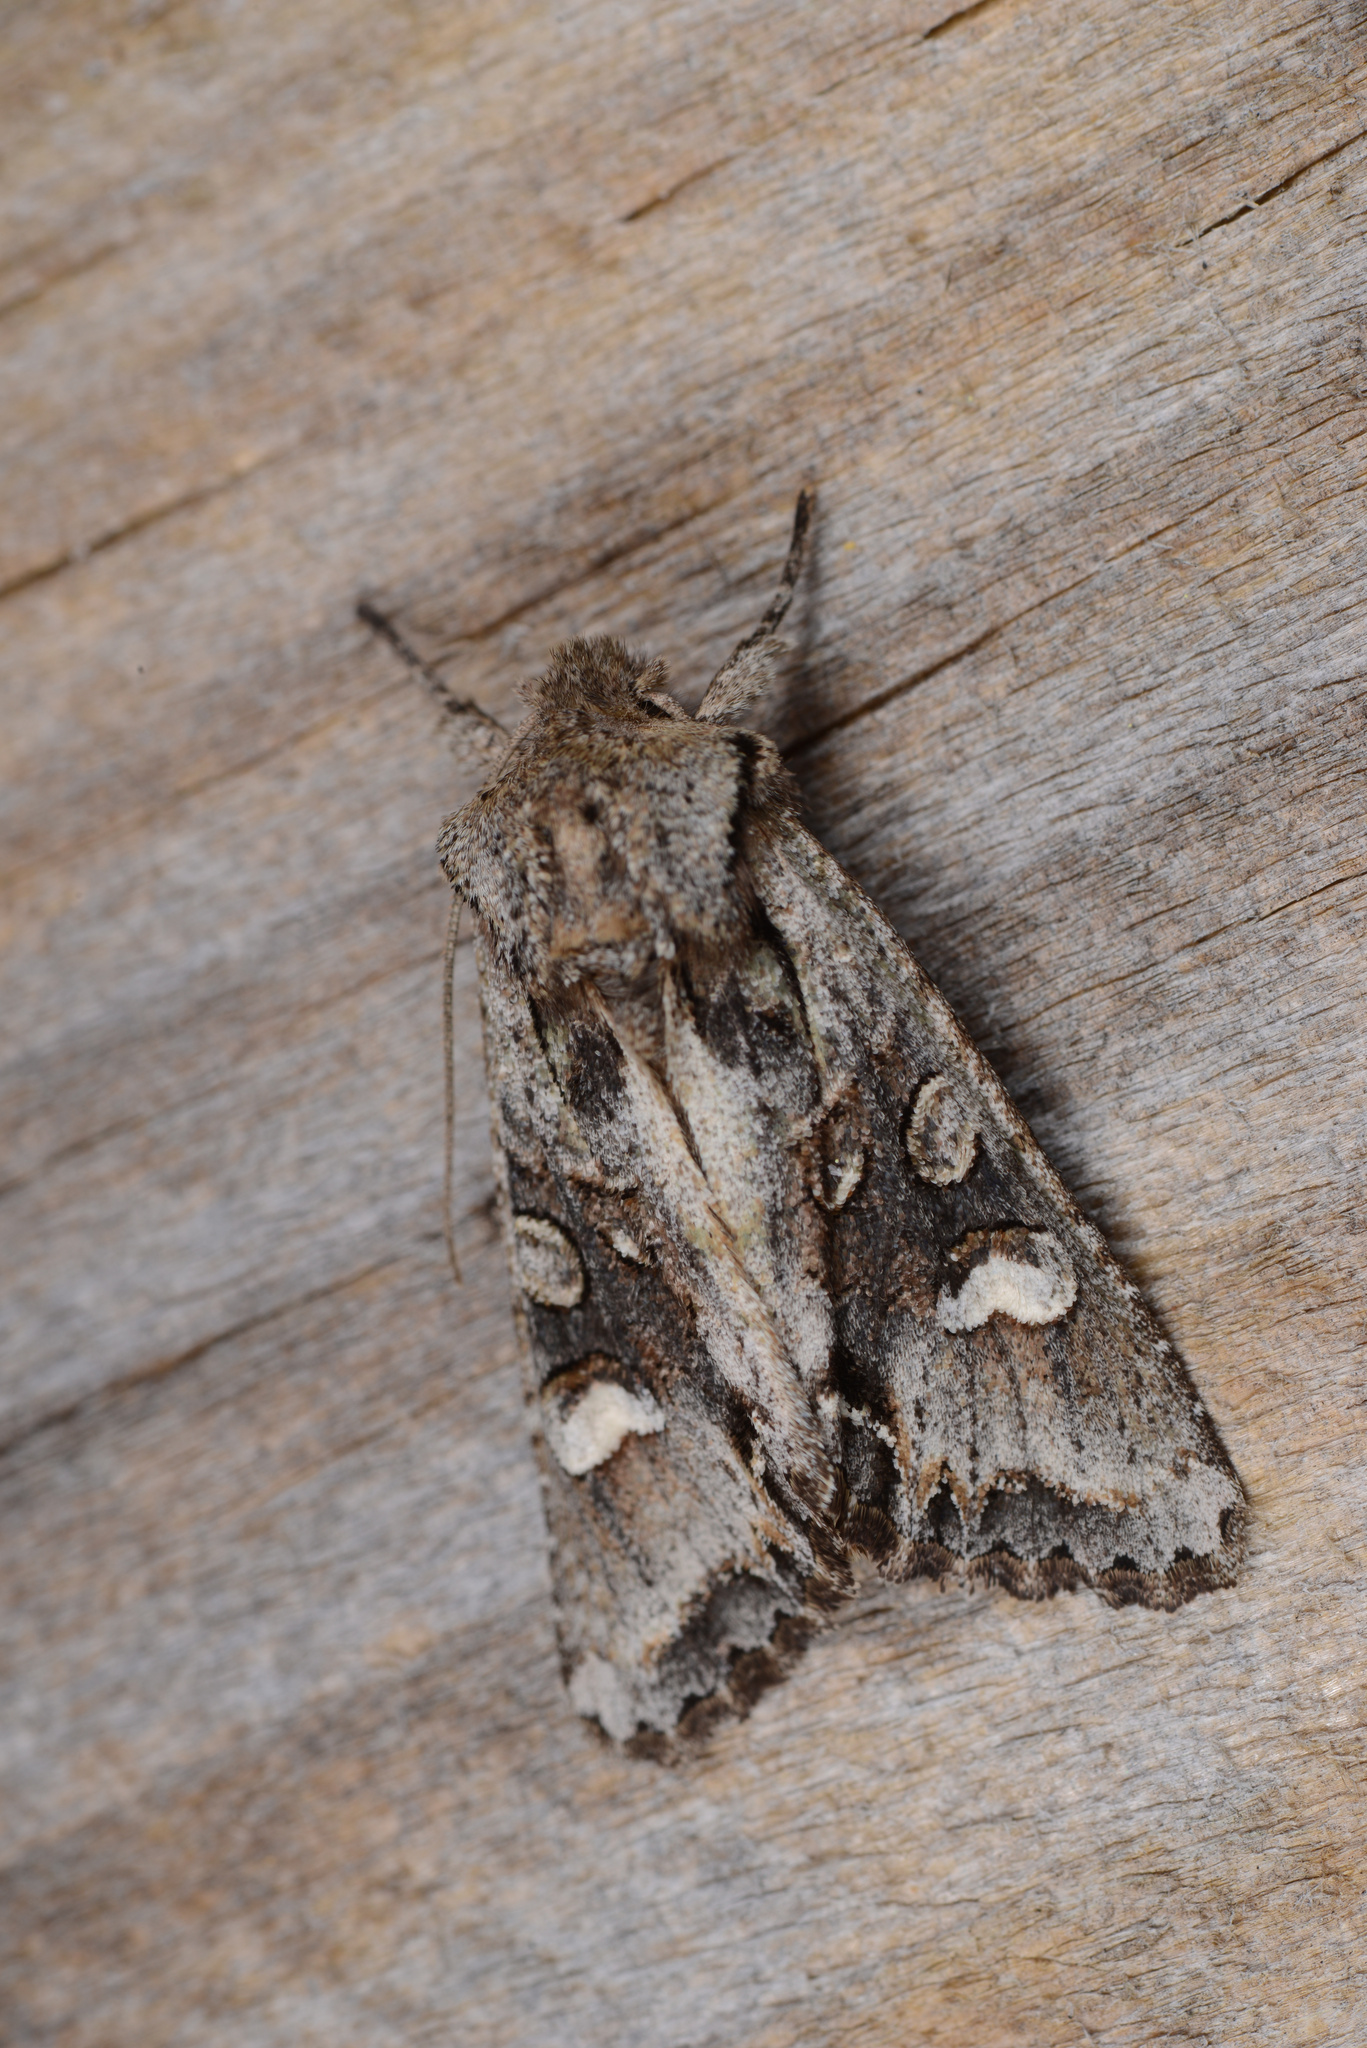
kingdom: Animalia
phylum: Arthropoda
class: Insecta
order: Lepidoptera
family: Noctuidae
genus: Ichneutica
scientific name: Ichneutica insignis
